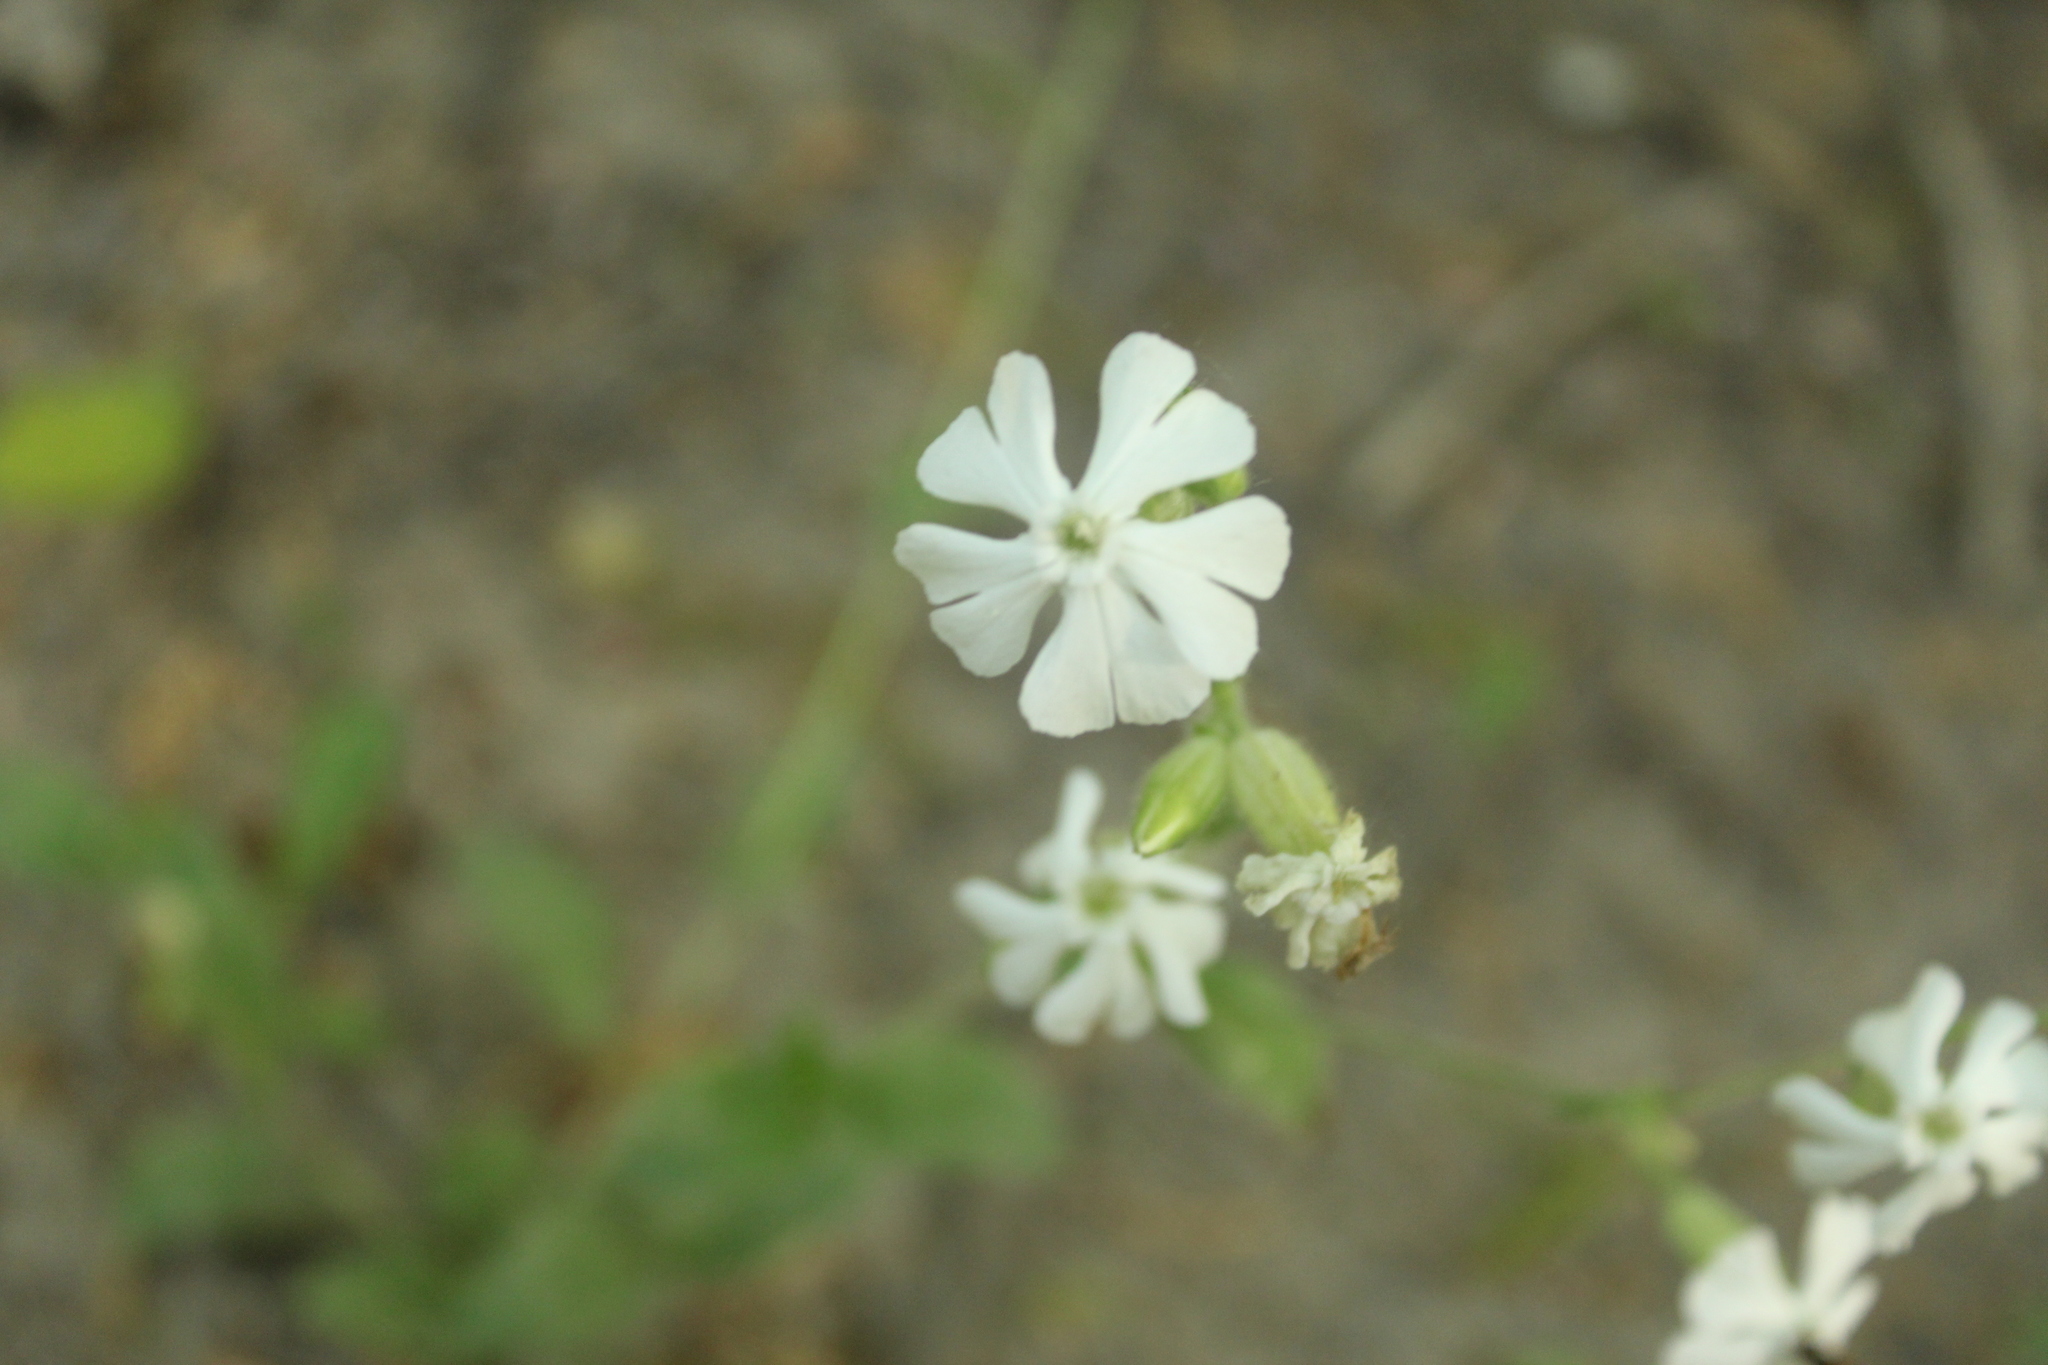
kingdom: Plantae
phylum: Tracheophyta
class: Magnoliopsida
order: Caryophyllales
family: Caryophyllaceae
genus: Silene
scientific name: Silene latifolia
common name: White campion
